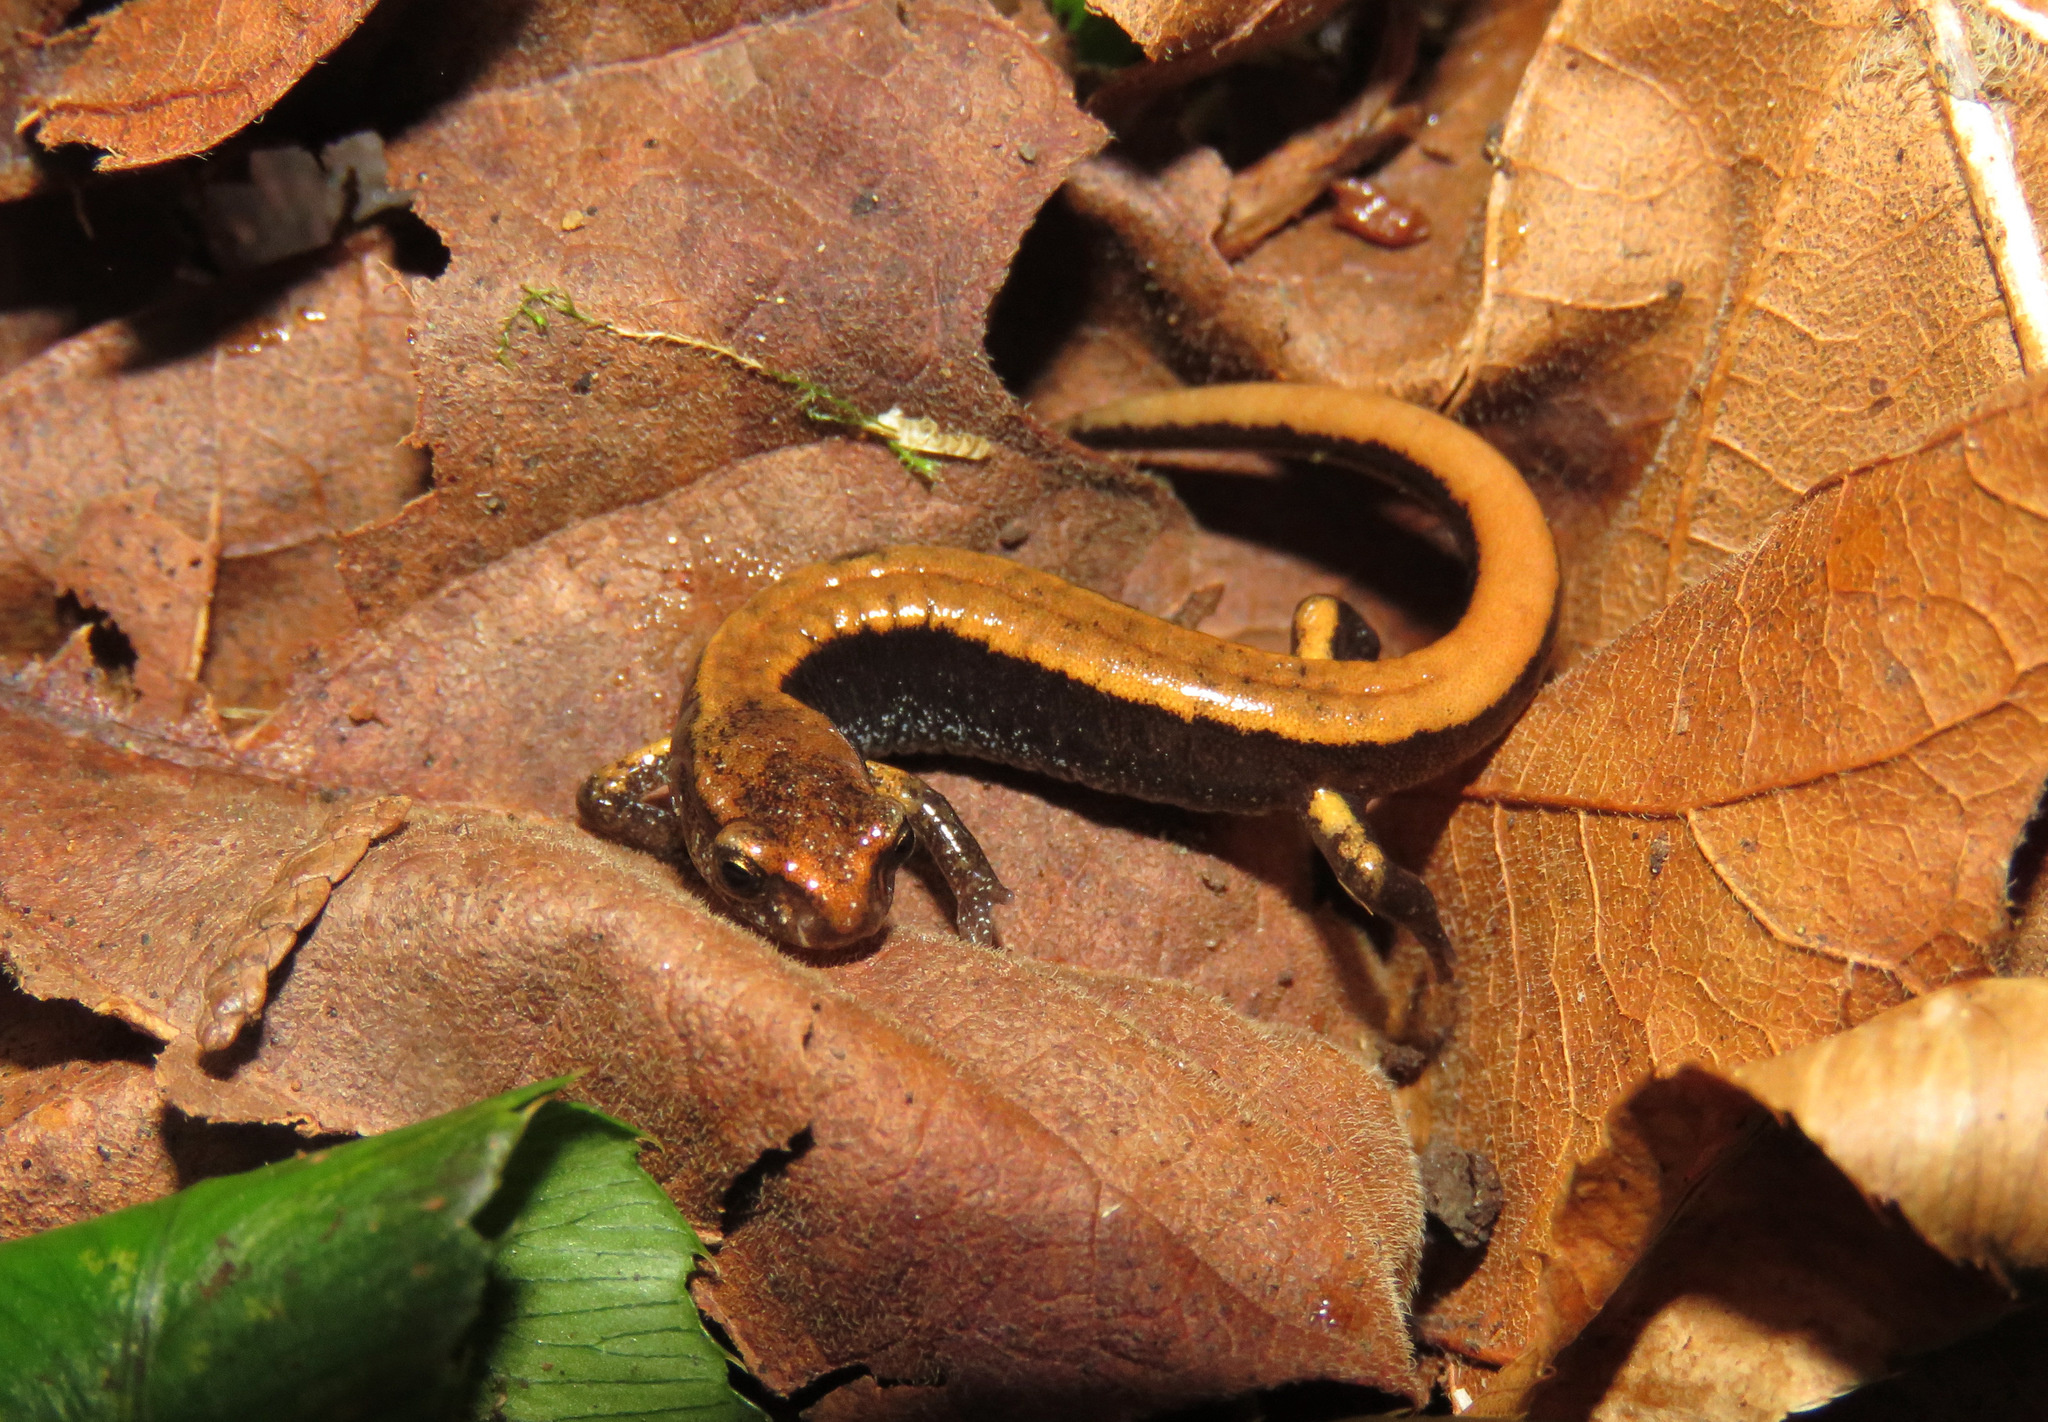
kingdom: Animalia
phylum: Chordata
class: Amphibia
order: Caudata
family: Plethodontidae
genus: Plethodon
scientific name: Plethodon vehiculum
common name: Western red-backed salamander
